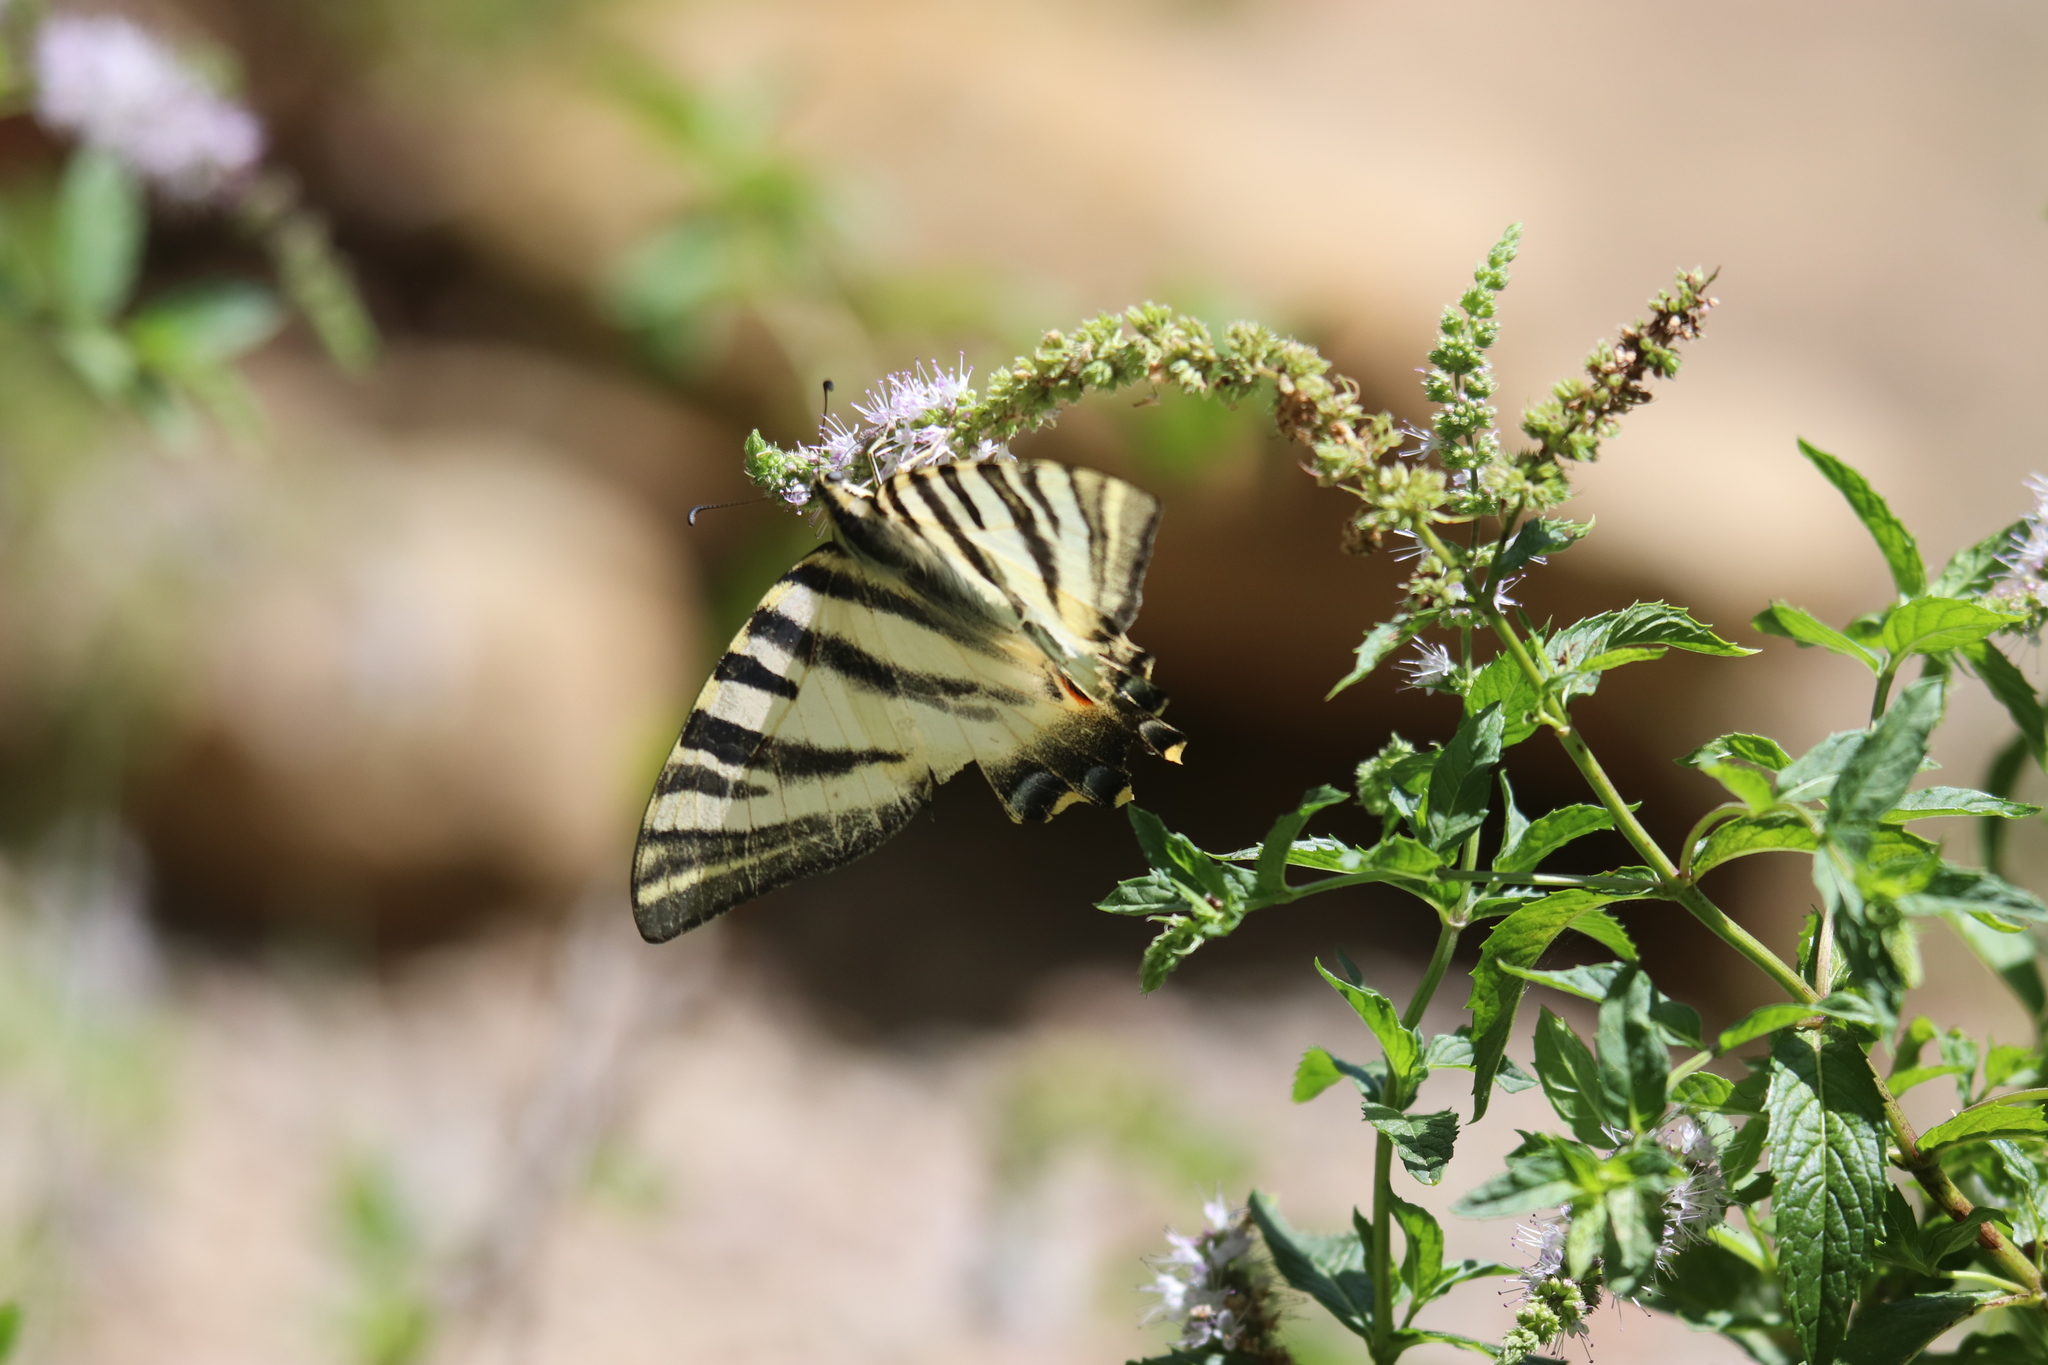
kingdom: Animalia
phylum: Arthropoda
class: Insecta
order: Lepidoptera
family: Papilionidae
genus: Iphiclides
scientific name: Iphiclides feisthamelii
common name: Iberian scarce swallowtail
